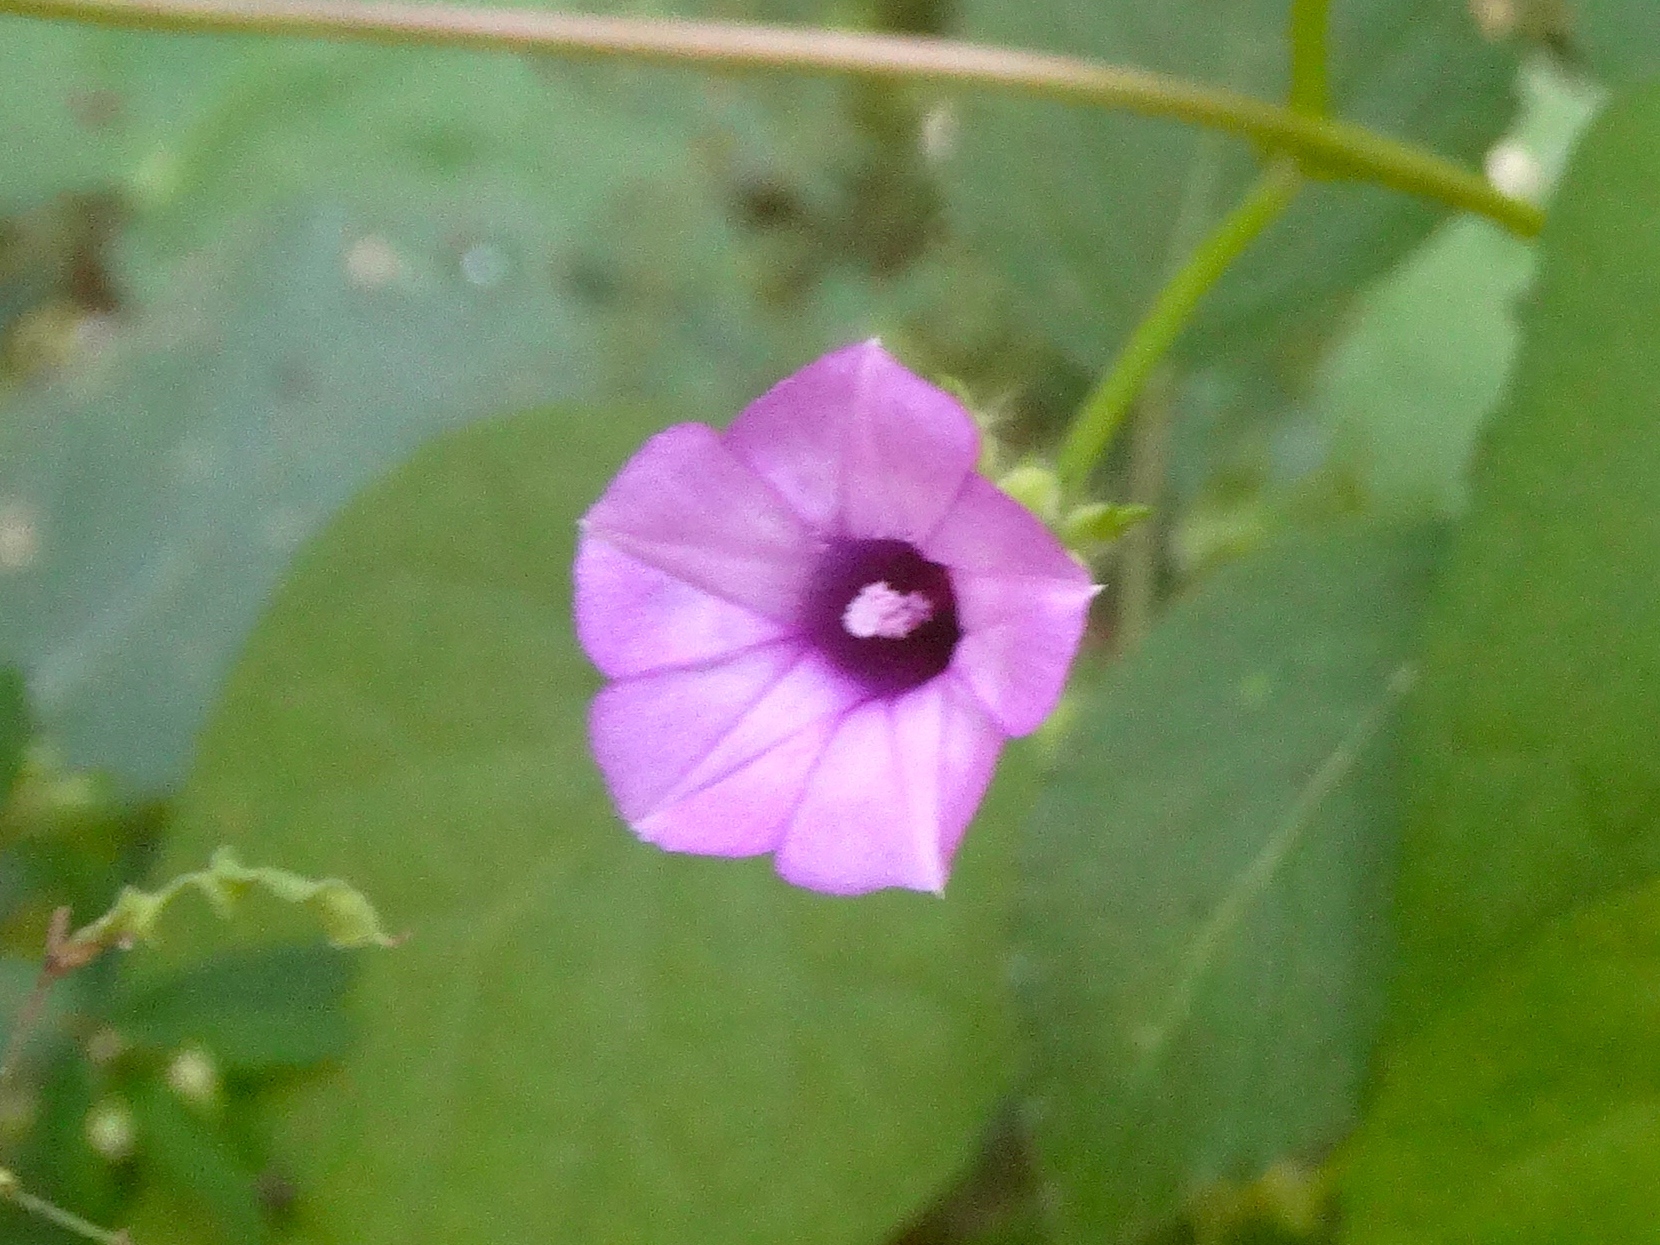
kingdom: Plantae
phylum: Tracheophyta
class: Magnoliopsida
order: Solanales
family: Convolvulaceae
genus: Ipomoea
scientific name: Ipomoea triloba
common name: Little-bell
